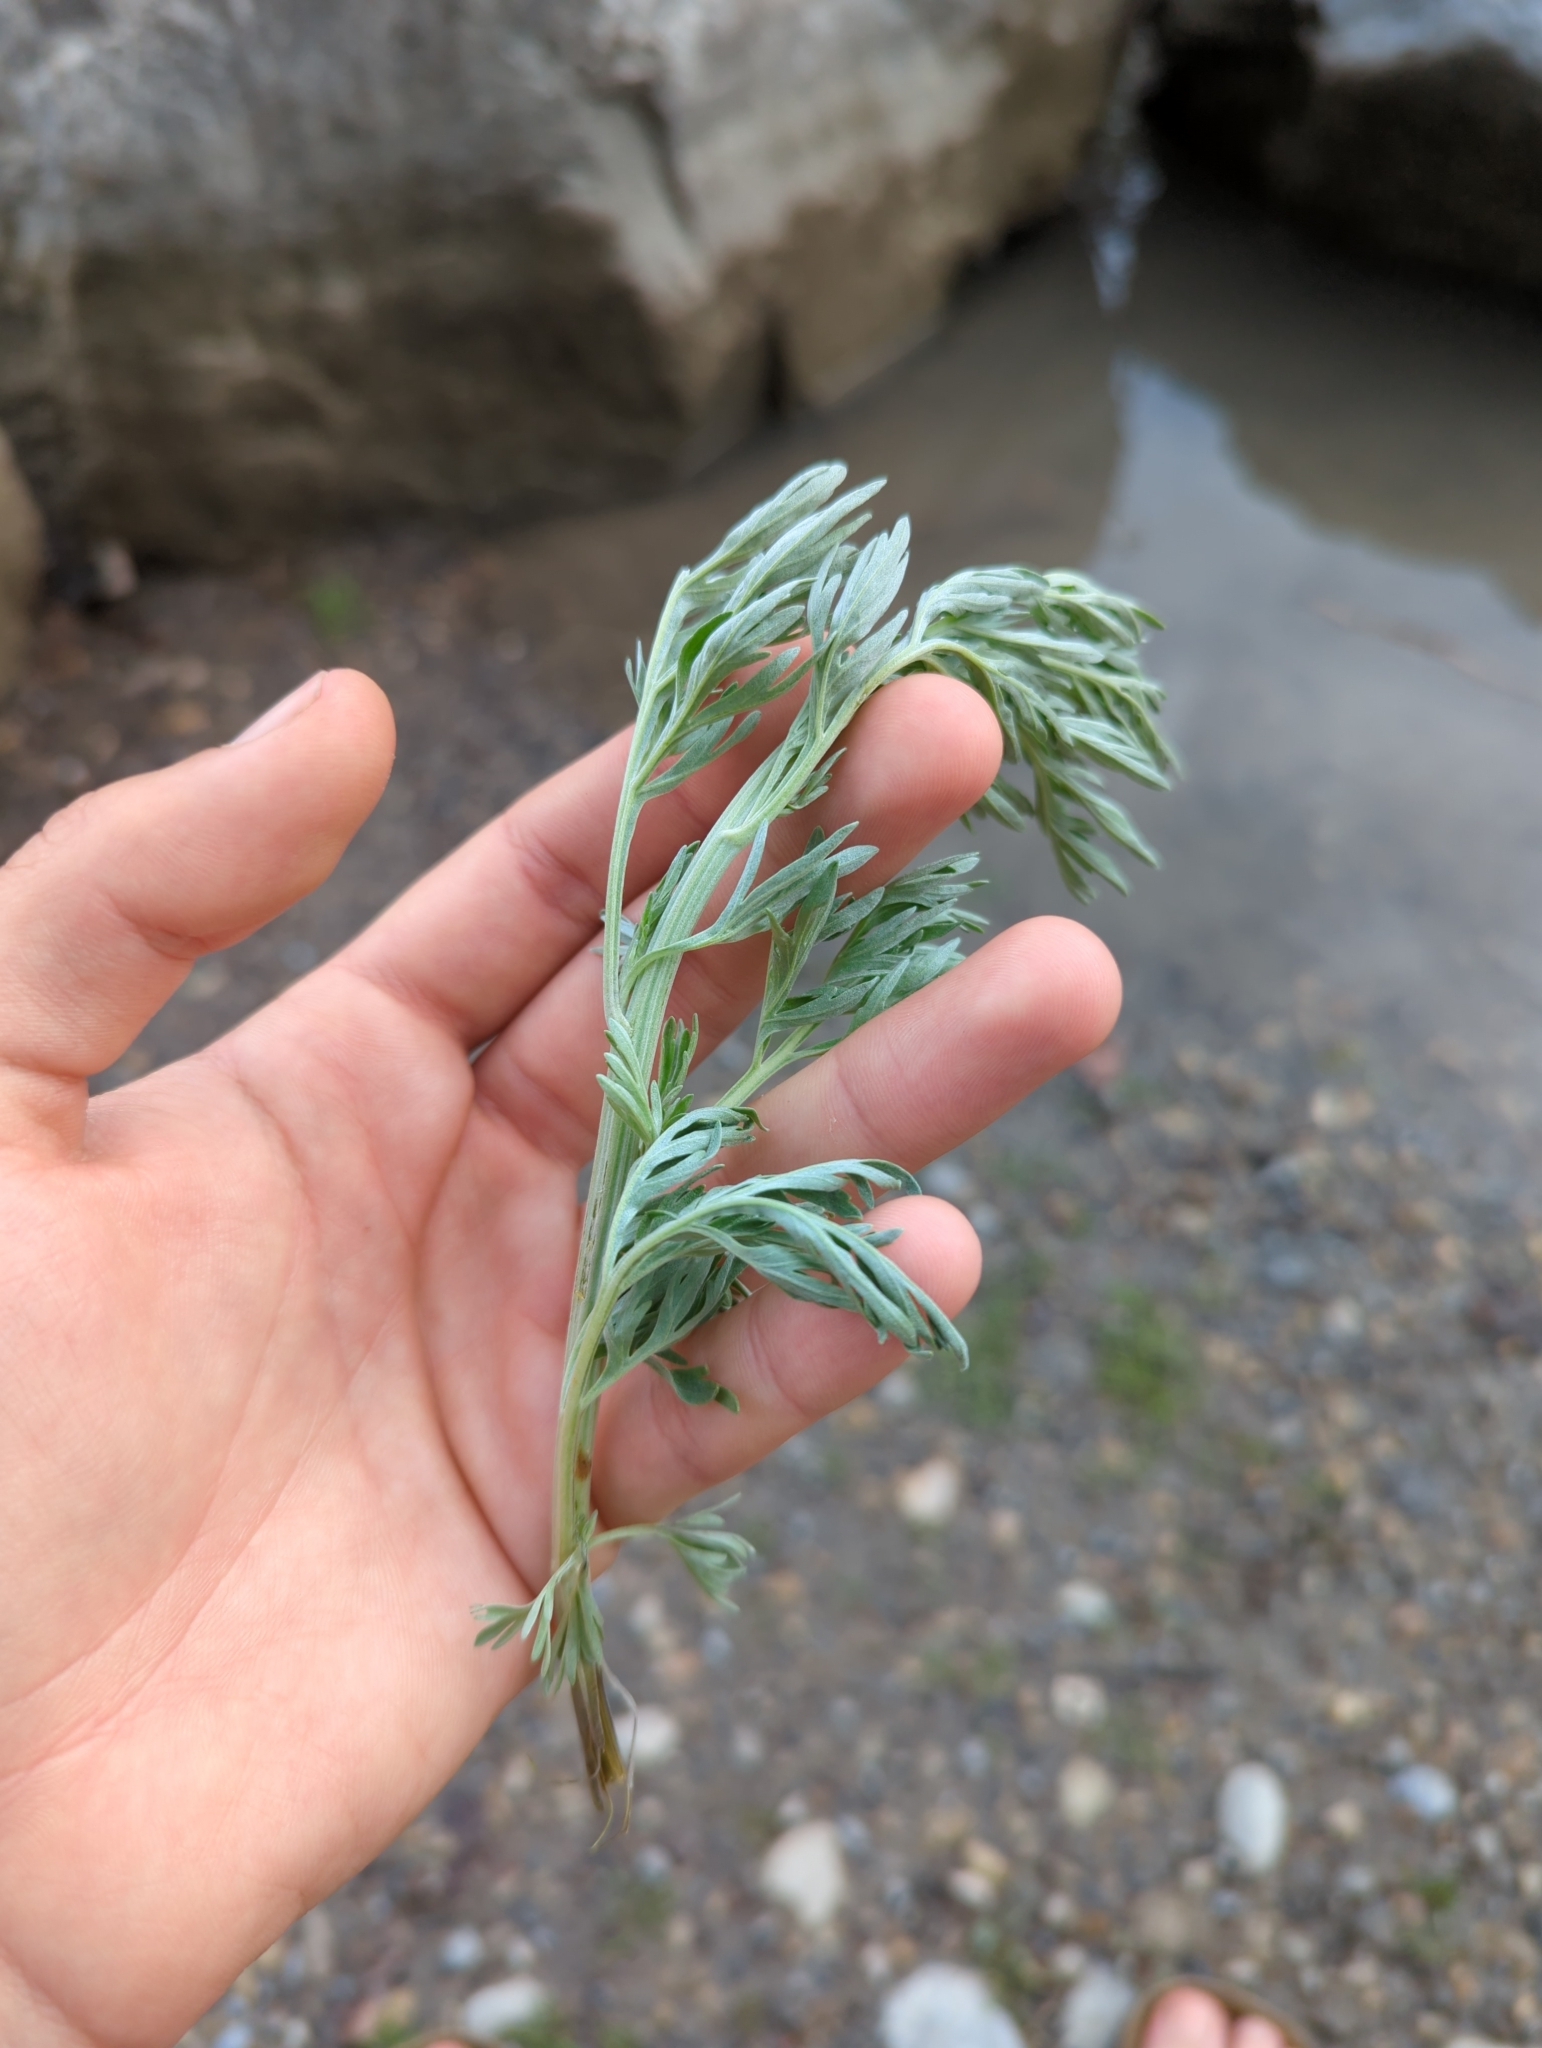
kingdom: Plantae
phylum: Tracheophyta
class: Magnoliopsida
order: Asterales
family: Asteraceae
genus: Artemisia
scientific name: Artemisia absinthium
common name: Wormwood
